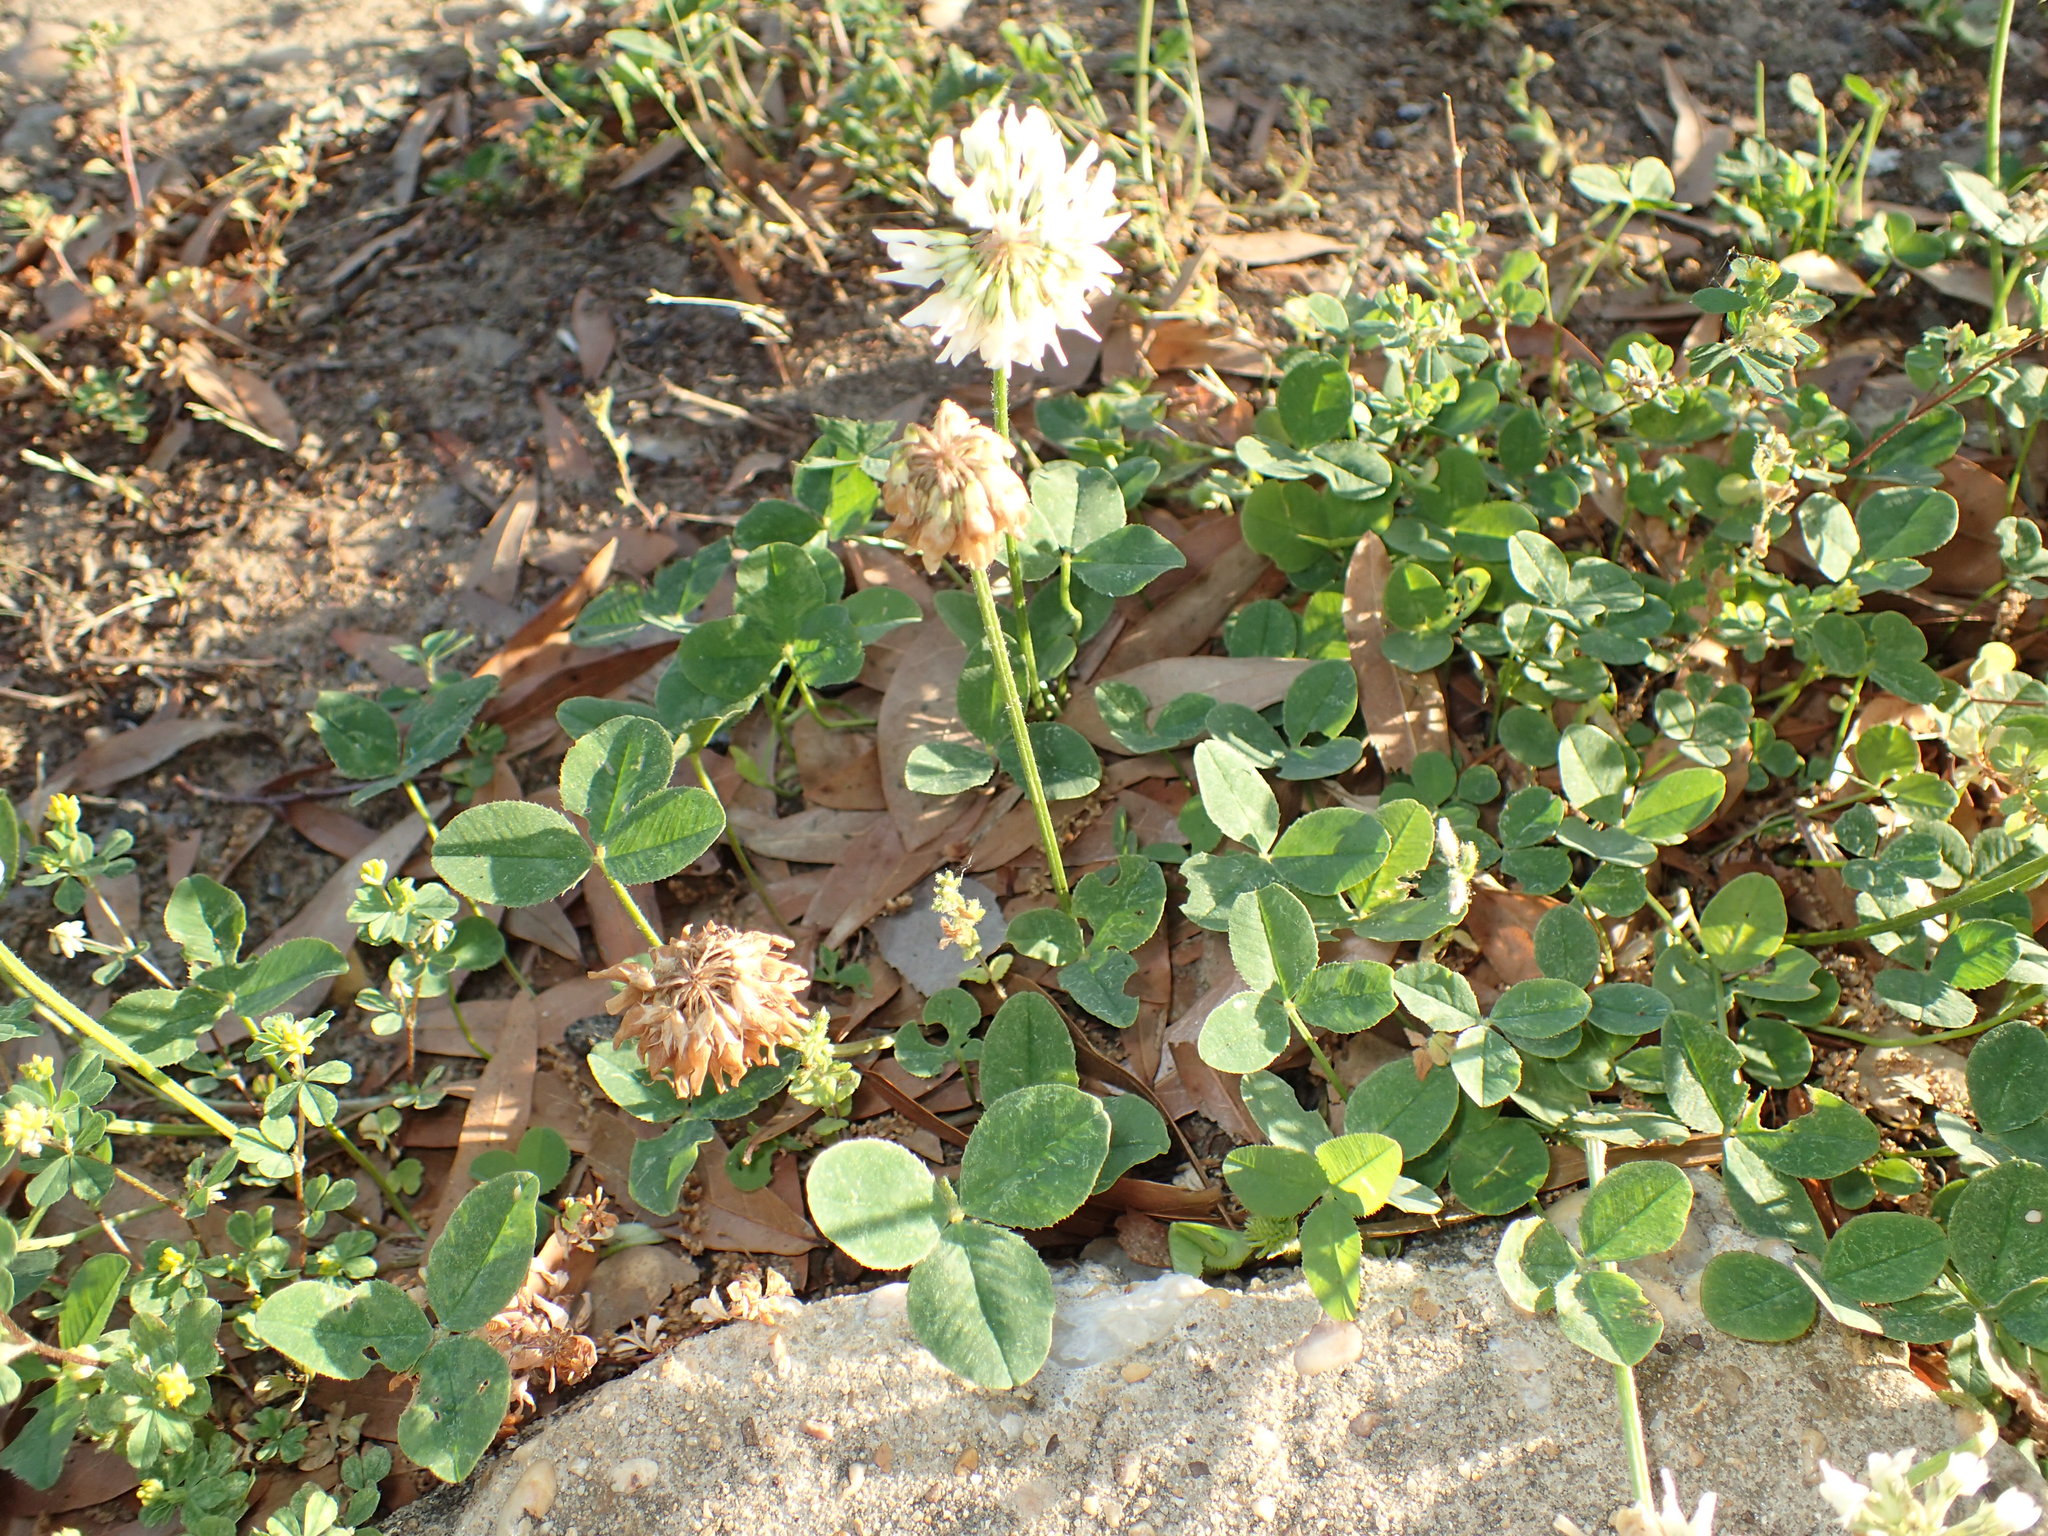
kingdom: Plantae
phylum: Tracheophyta
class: Magnoliopsida
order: Fabales
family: Fabaceae
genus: Trifolium
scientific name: Trifolium repens
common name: White clover
